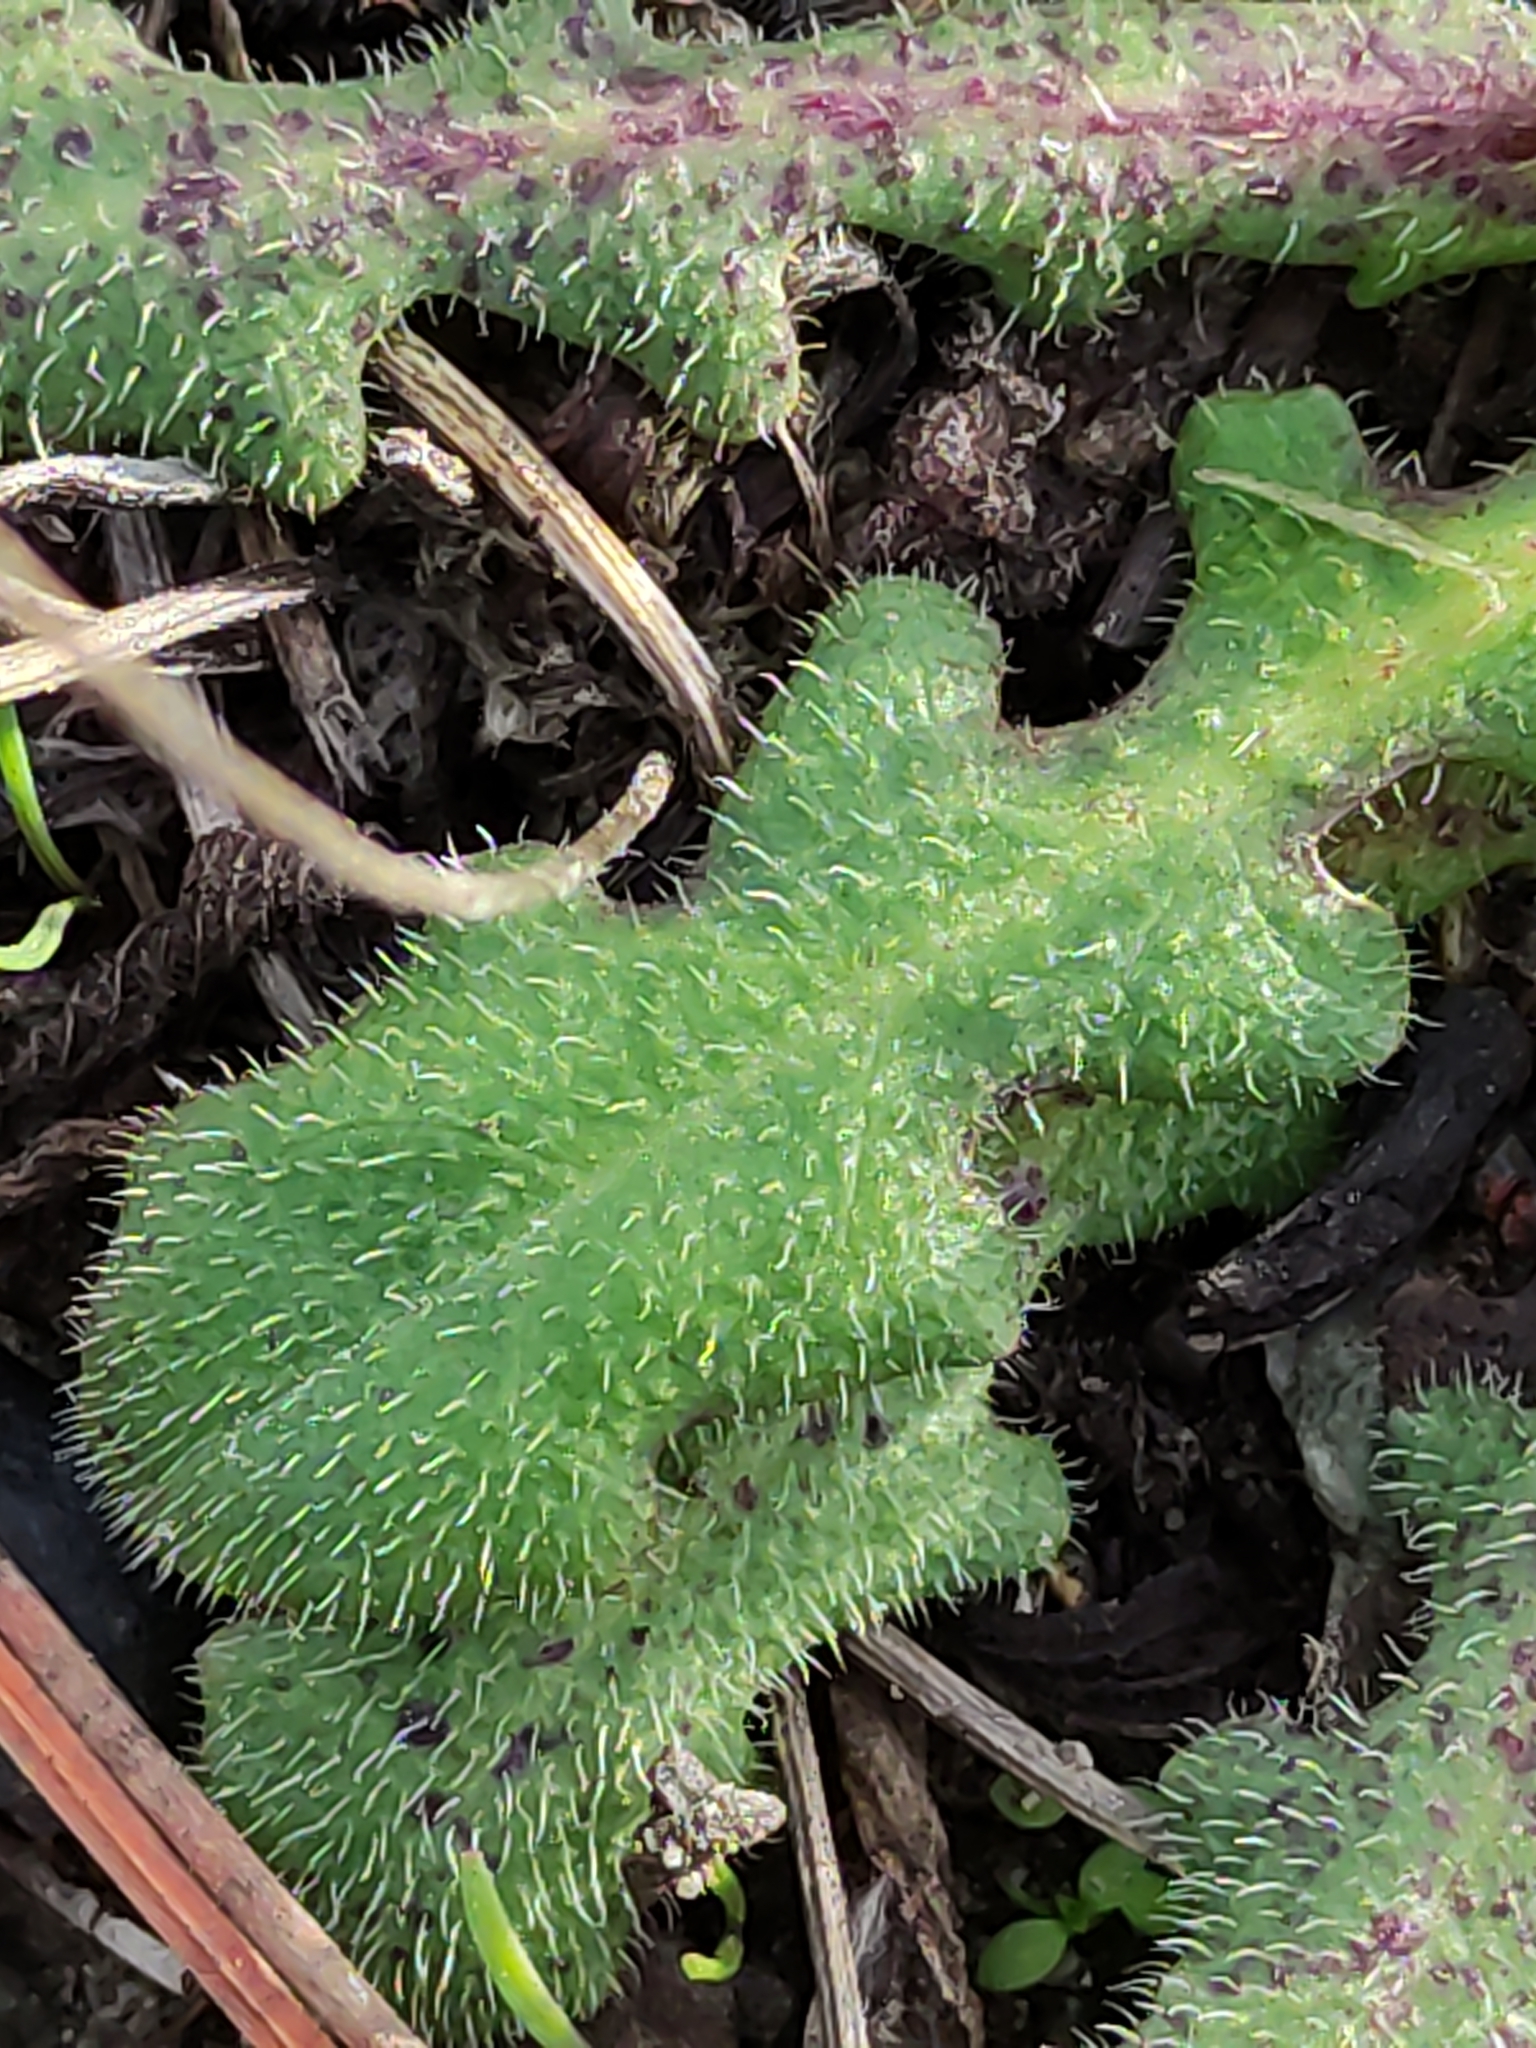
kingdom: Plantae
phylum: Tracheophyta
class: Magnoliopsida
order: Asterales
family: Asteraceae
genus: Hypochaeris
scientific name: Hypochaeris radicata
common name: Flatweed
